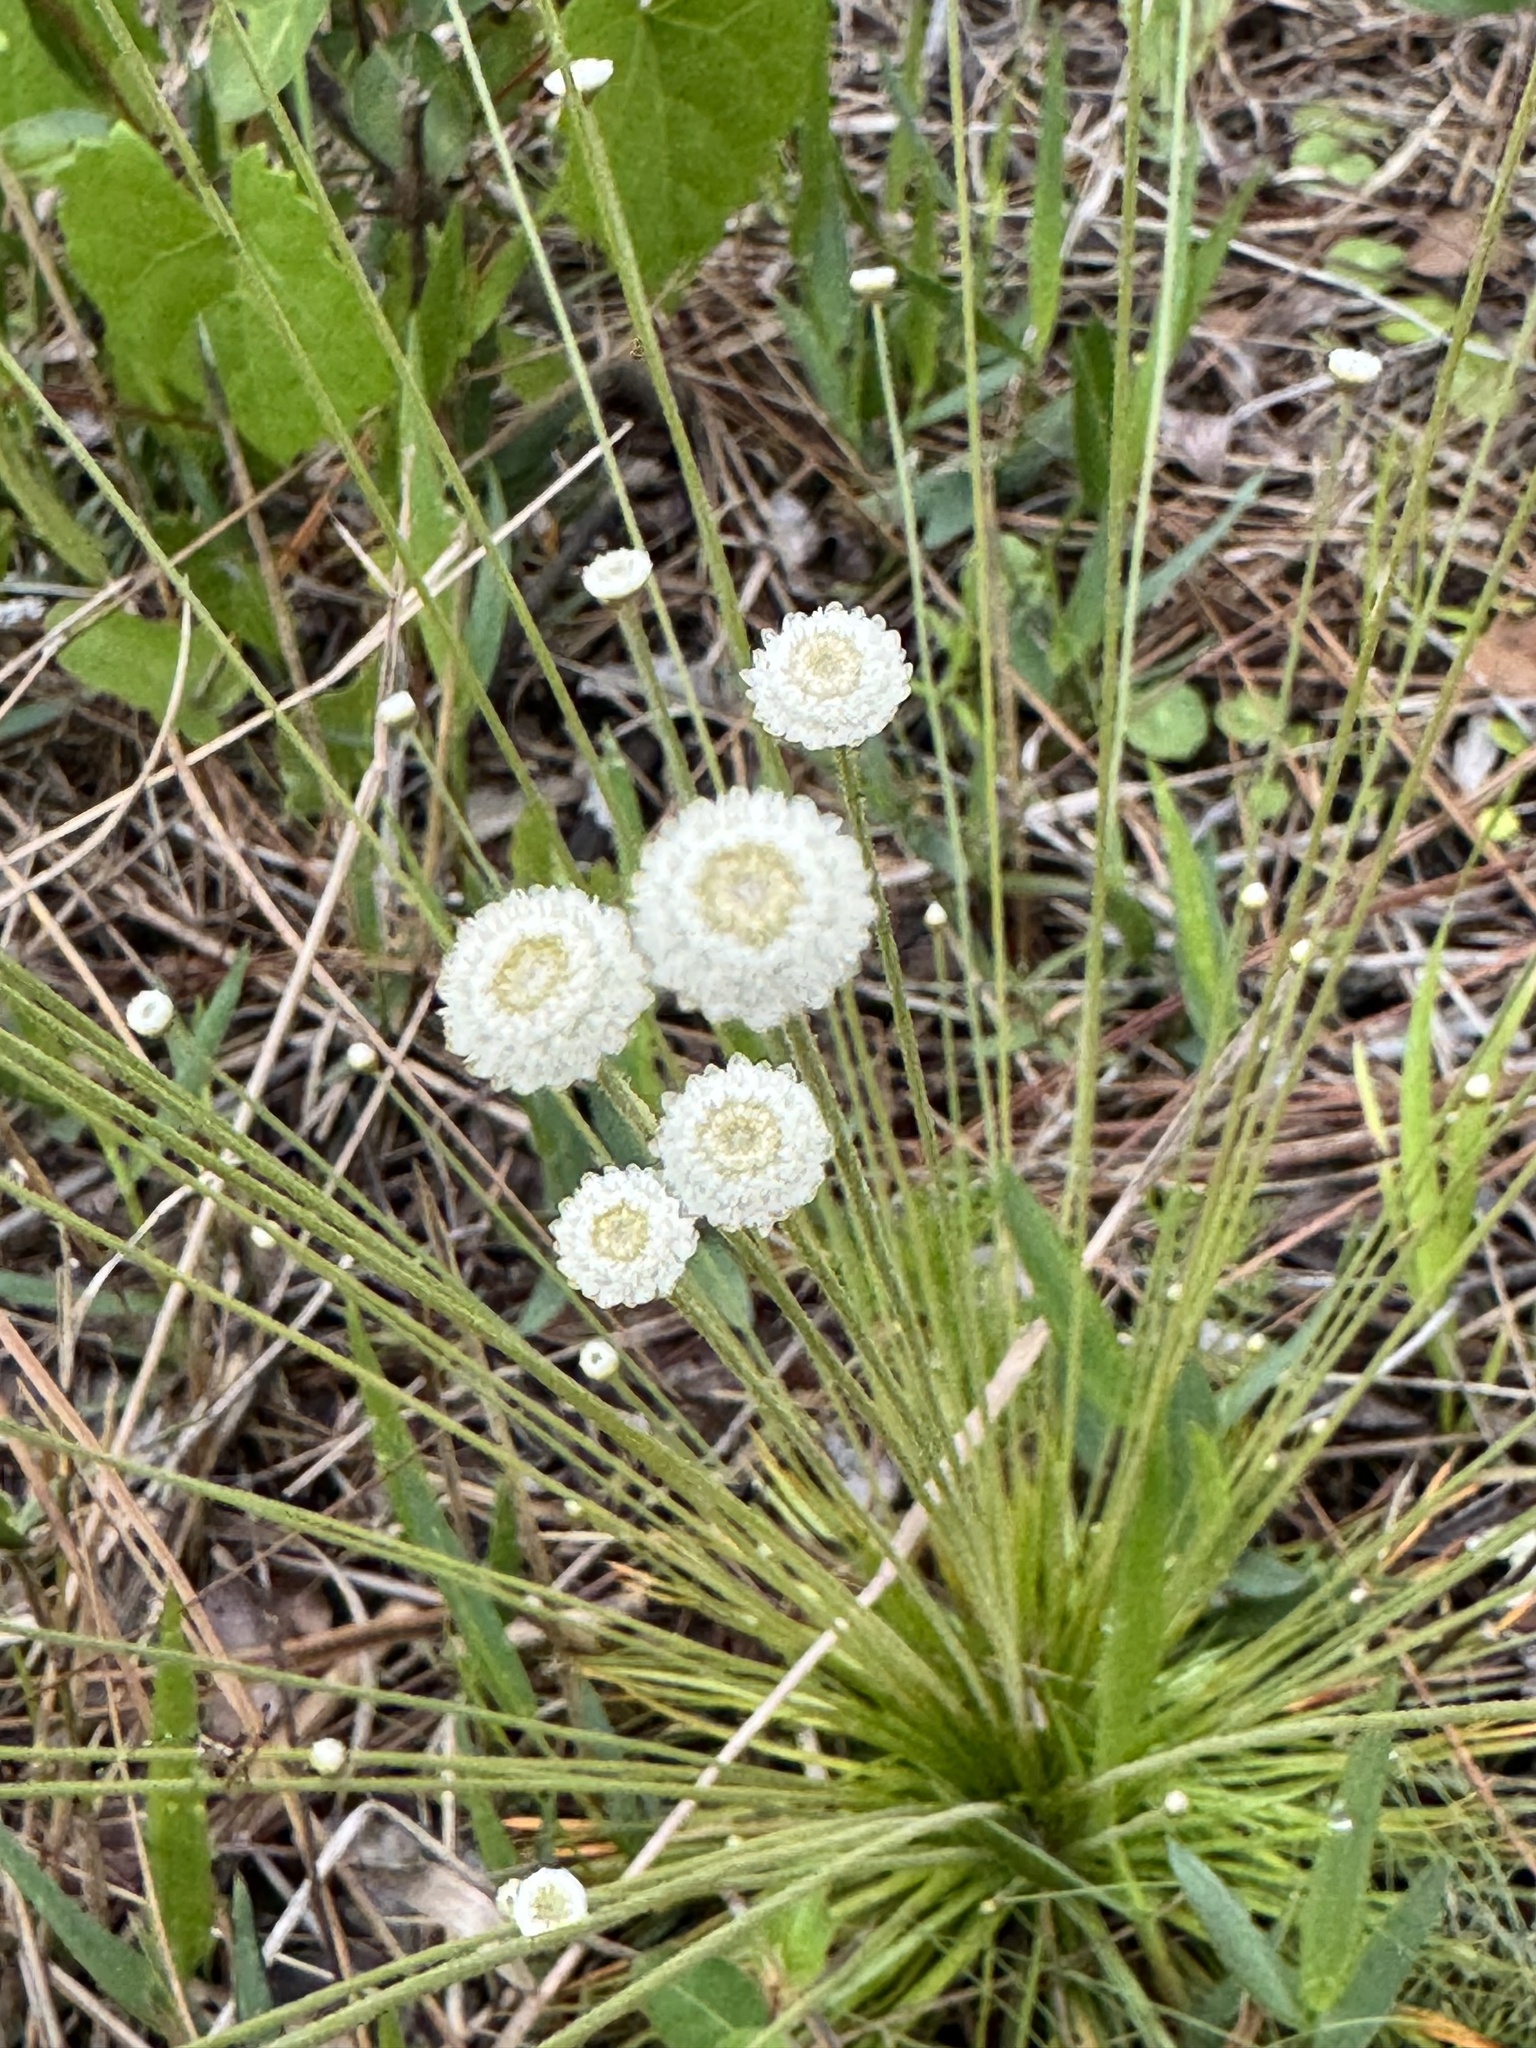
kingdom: Plantae
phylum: Tracheophyta
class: Liliopsida
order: Poales
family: Eriocaulaceae
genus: Syngonanthus
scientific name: Syngonanthus flavidulus
